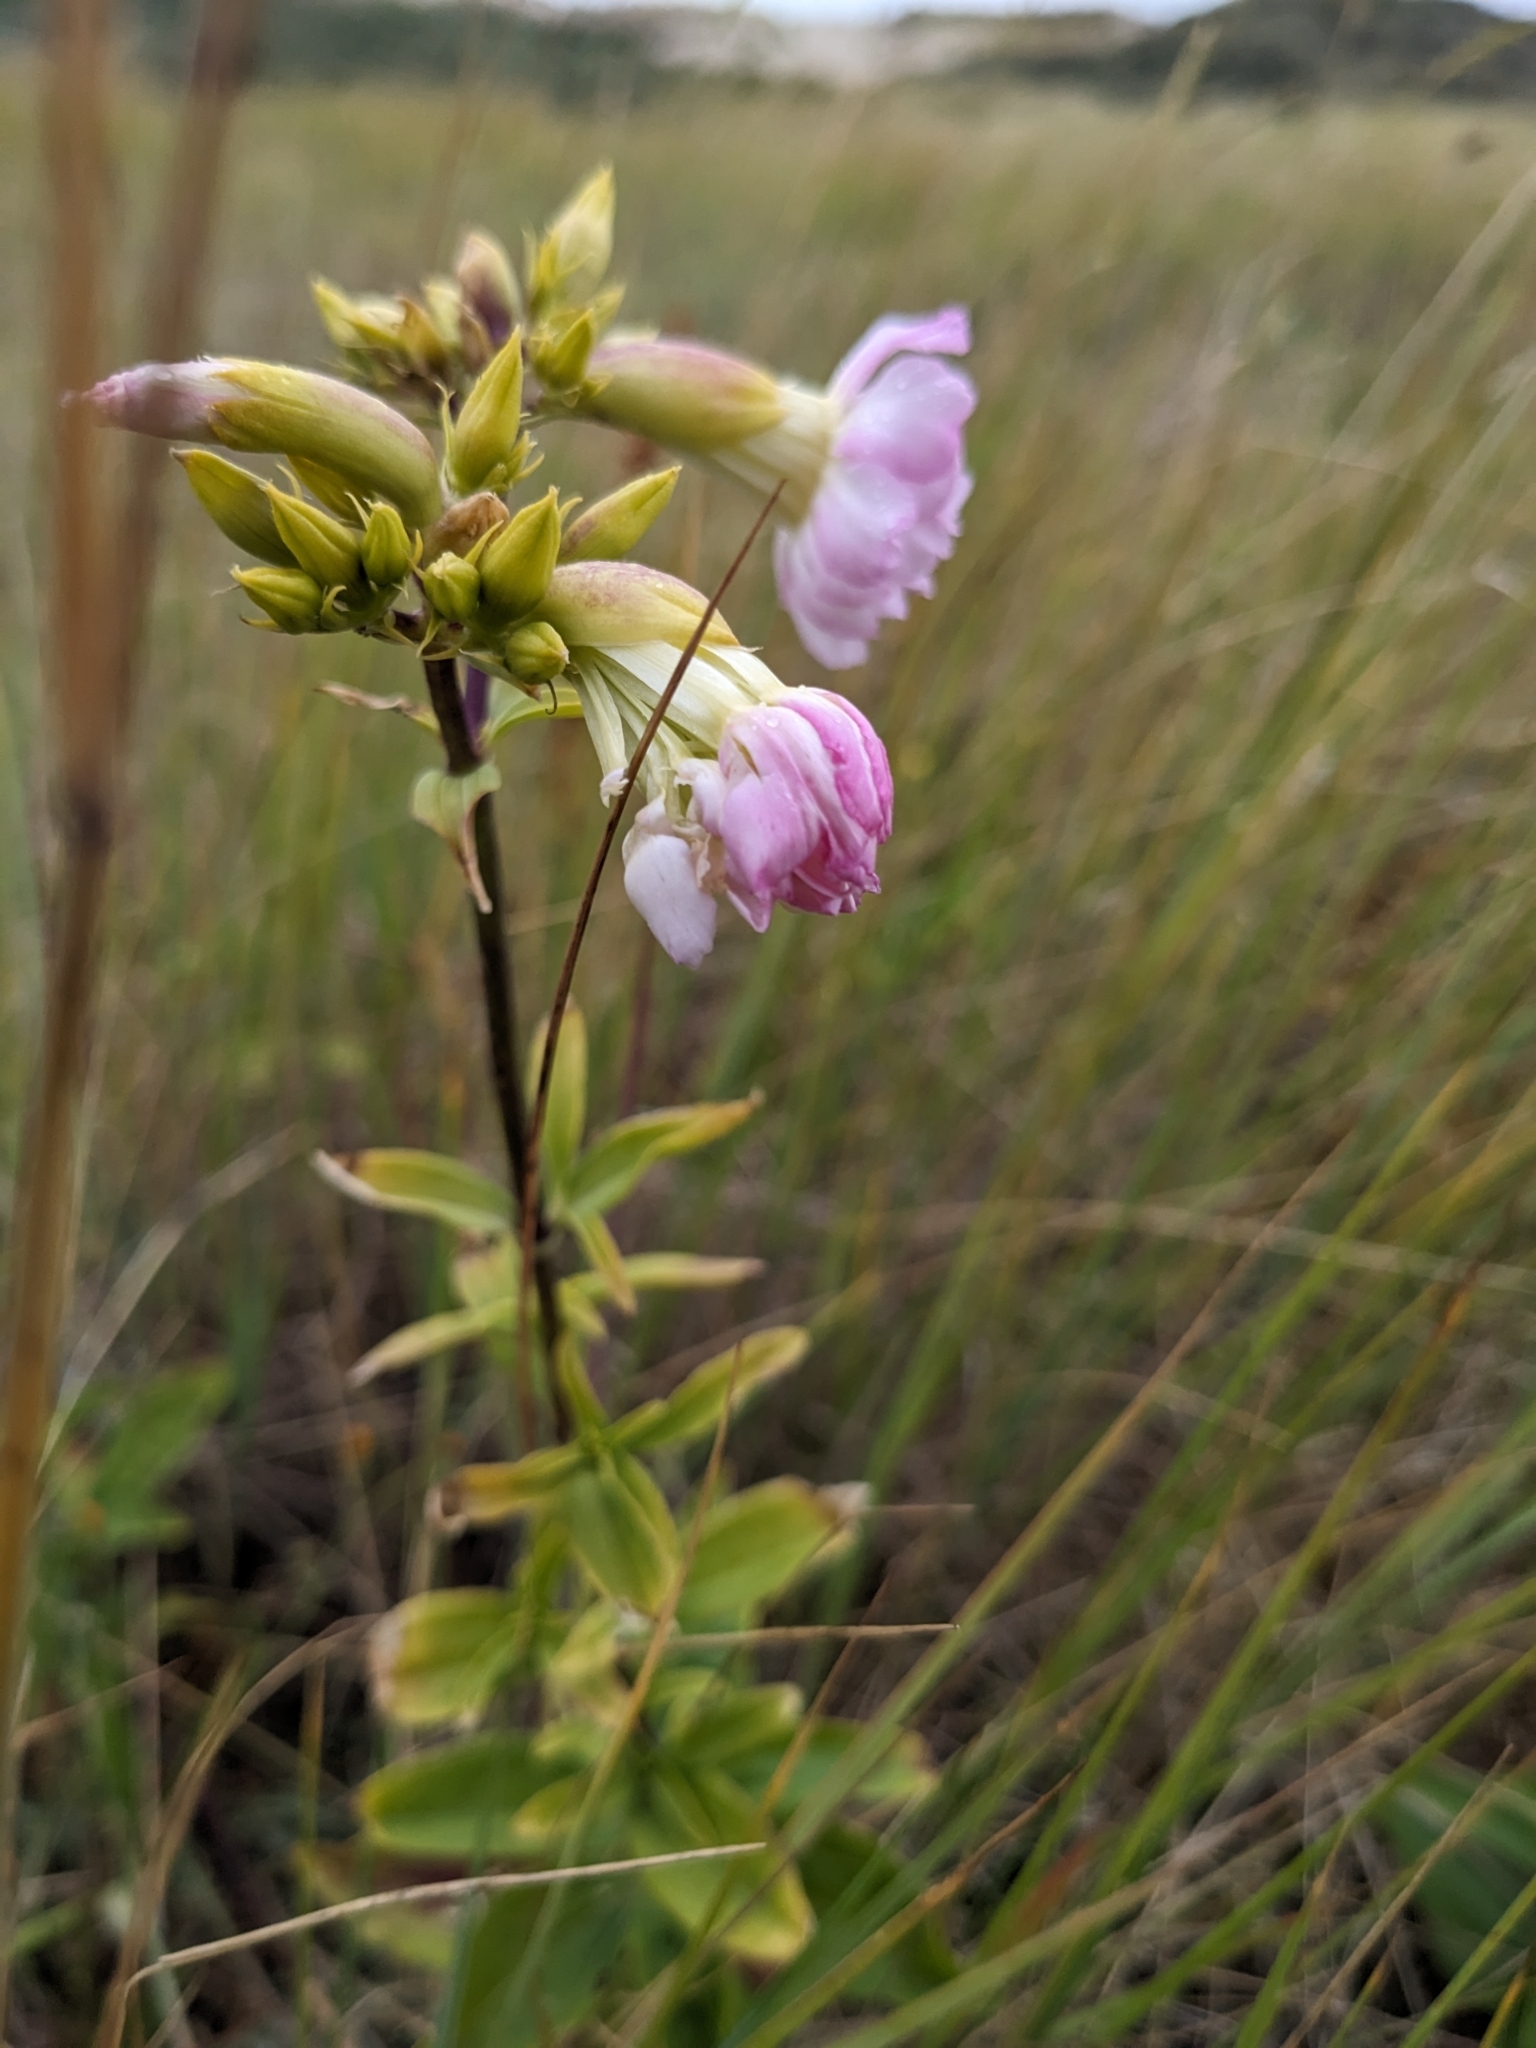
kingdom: Plantae
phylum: Tracheophyta
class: Magnoliopsida
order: Caryophyllales
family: Caryophyllaceae
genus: Saponaria
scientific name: Saponaria officinalis
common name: Soapwort
